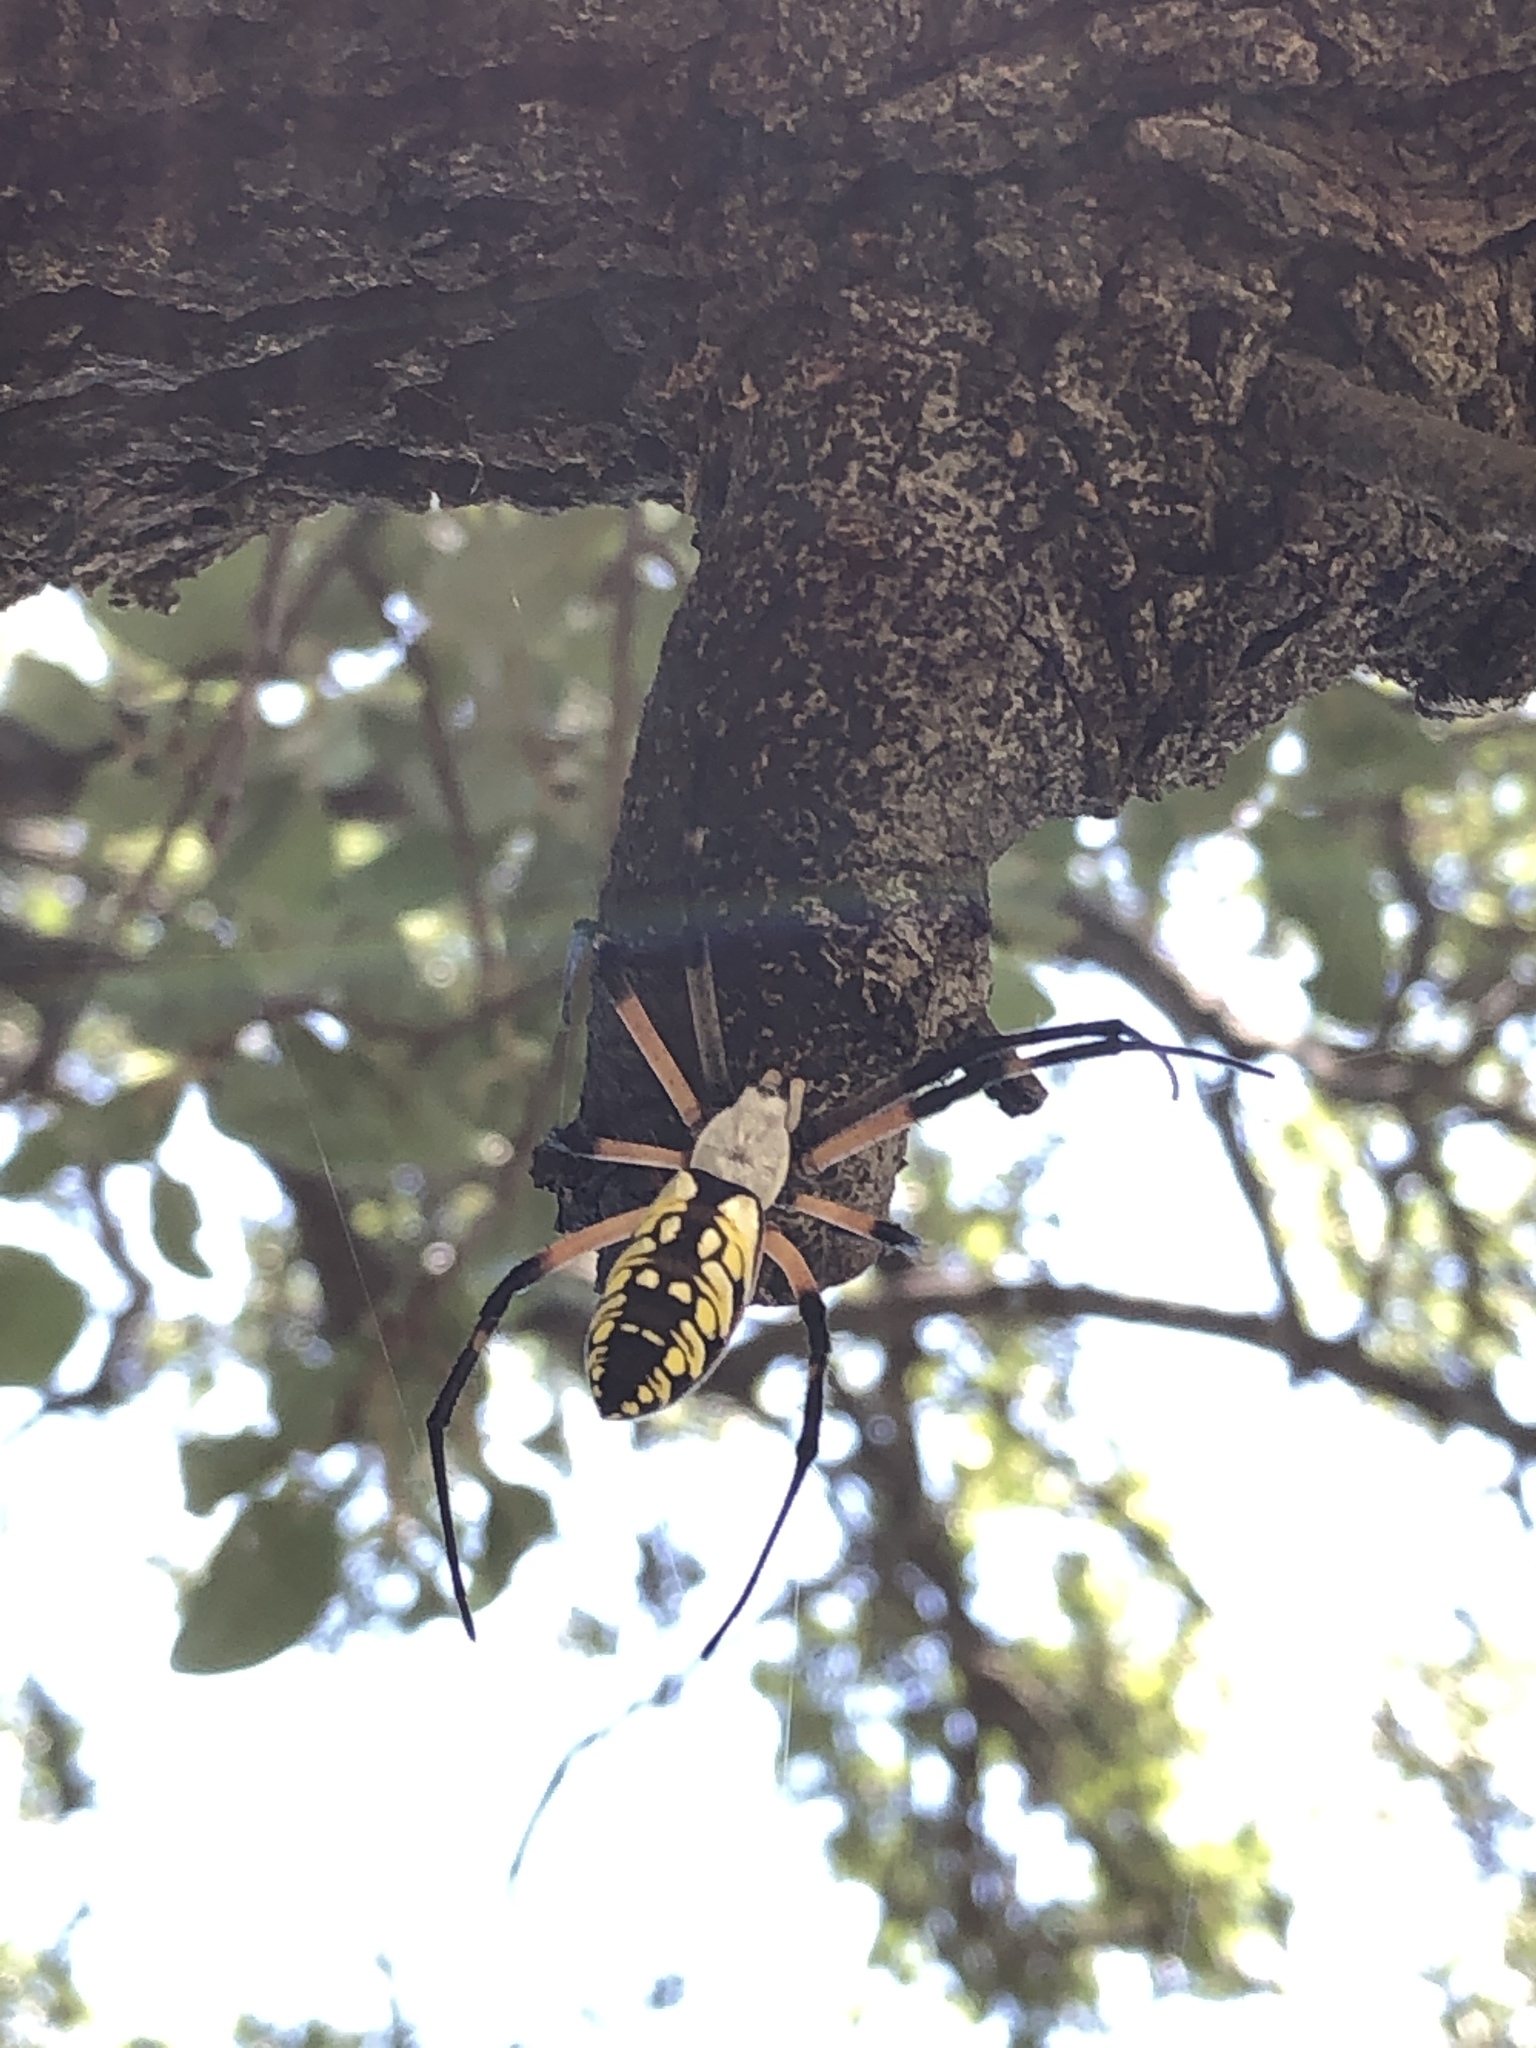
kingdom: Animalia
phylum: Arthropoda
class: Arachnida
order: Araneae
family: Araneidae
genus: Argiope
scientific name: Argiope aurantia
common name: Orb weavers
